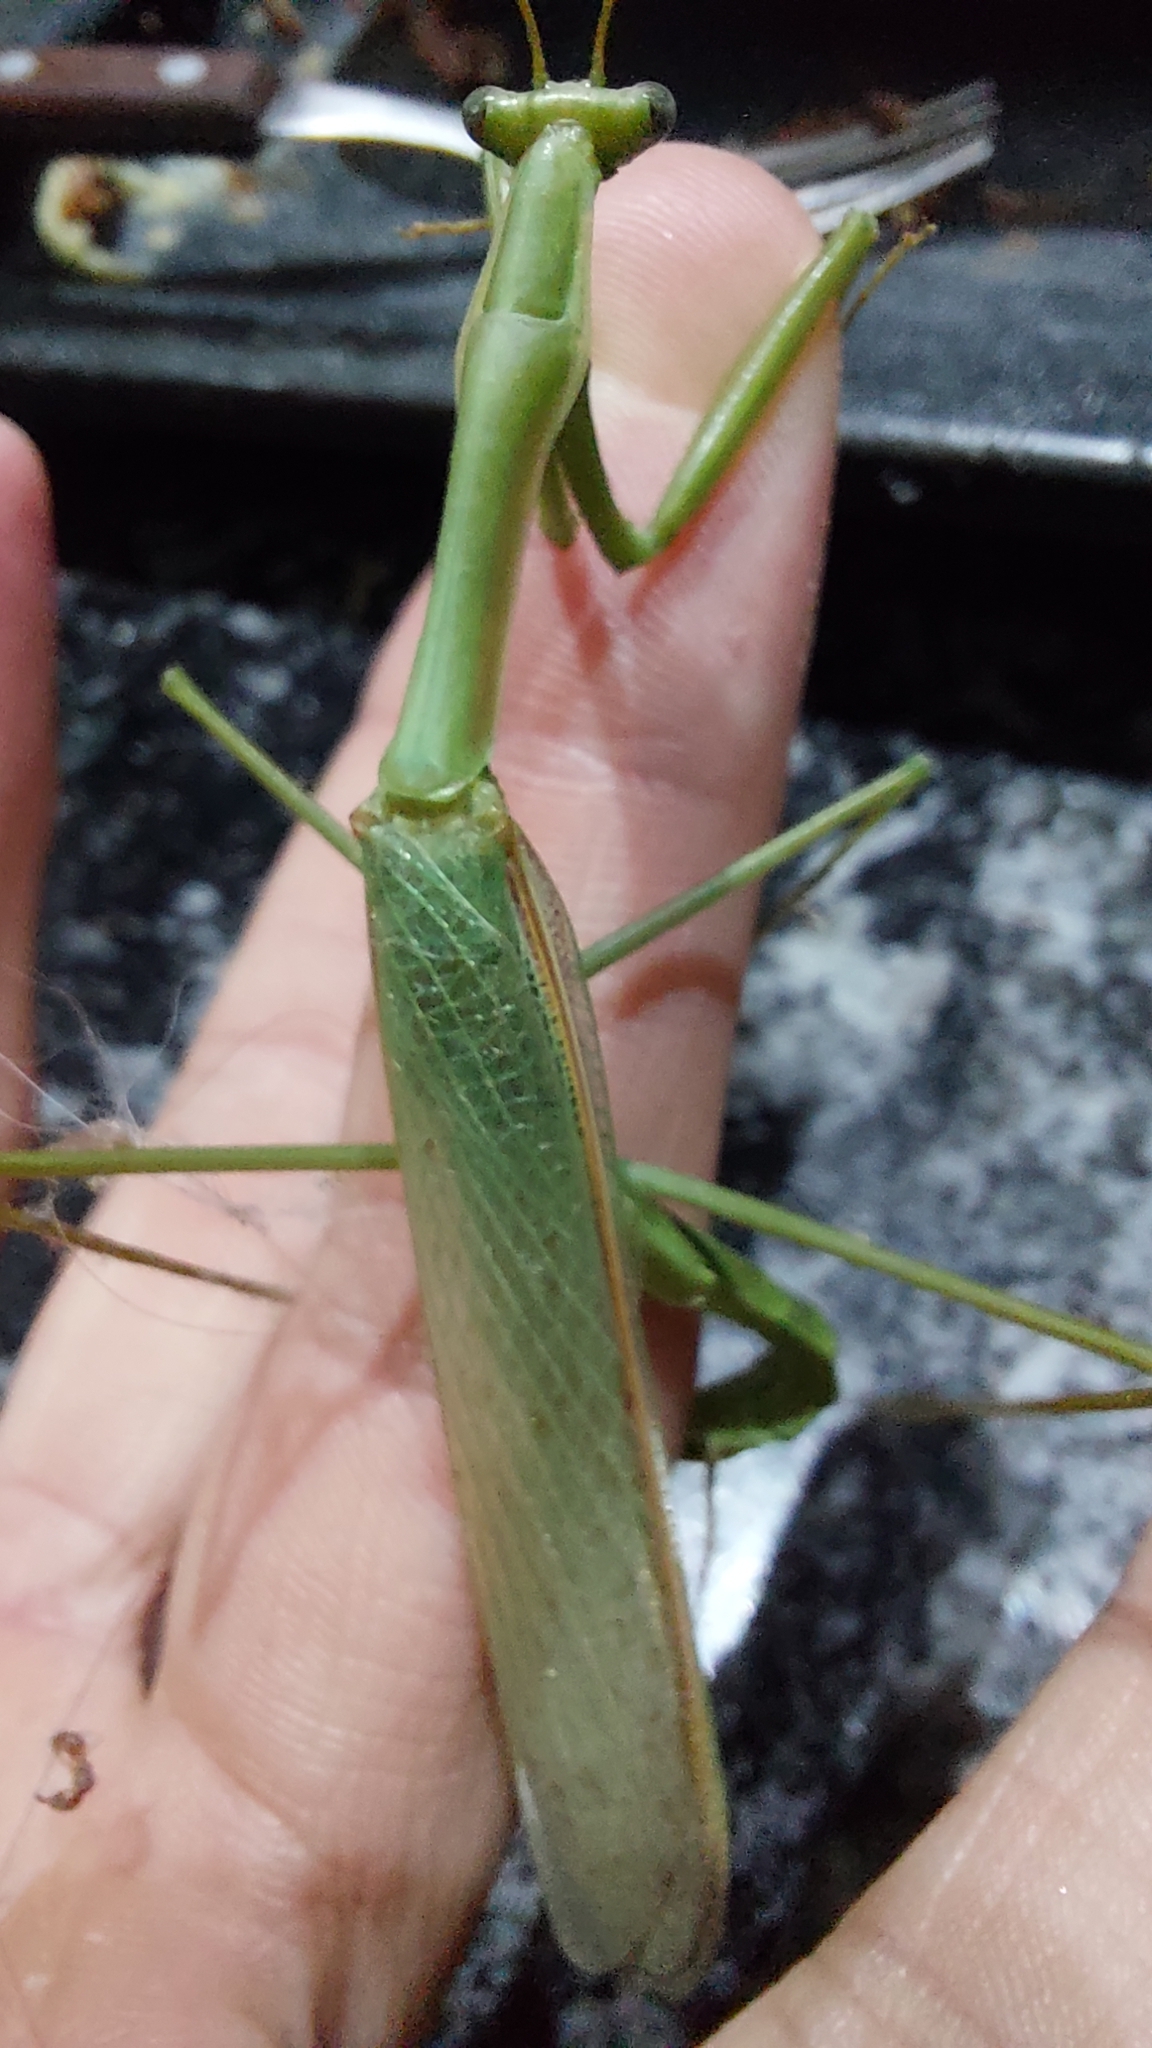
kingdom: Animalia
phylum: Arthropoda
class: Insecta
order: Mantodea
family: Coptopterygidae
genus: Coptopteryx
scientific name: Coptopteryx argentina
